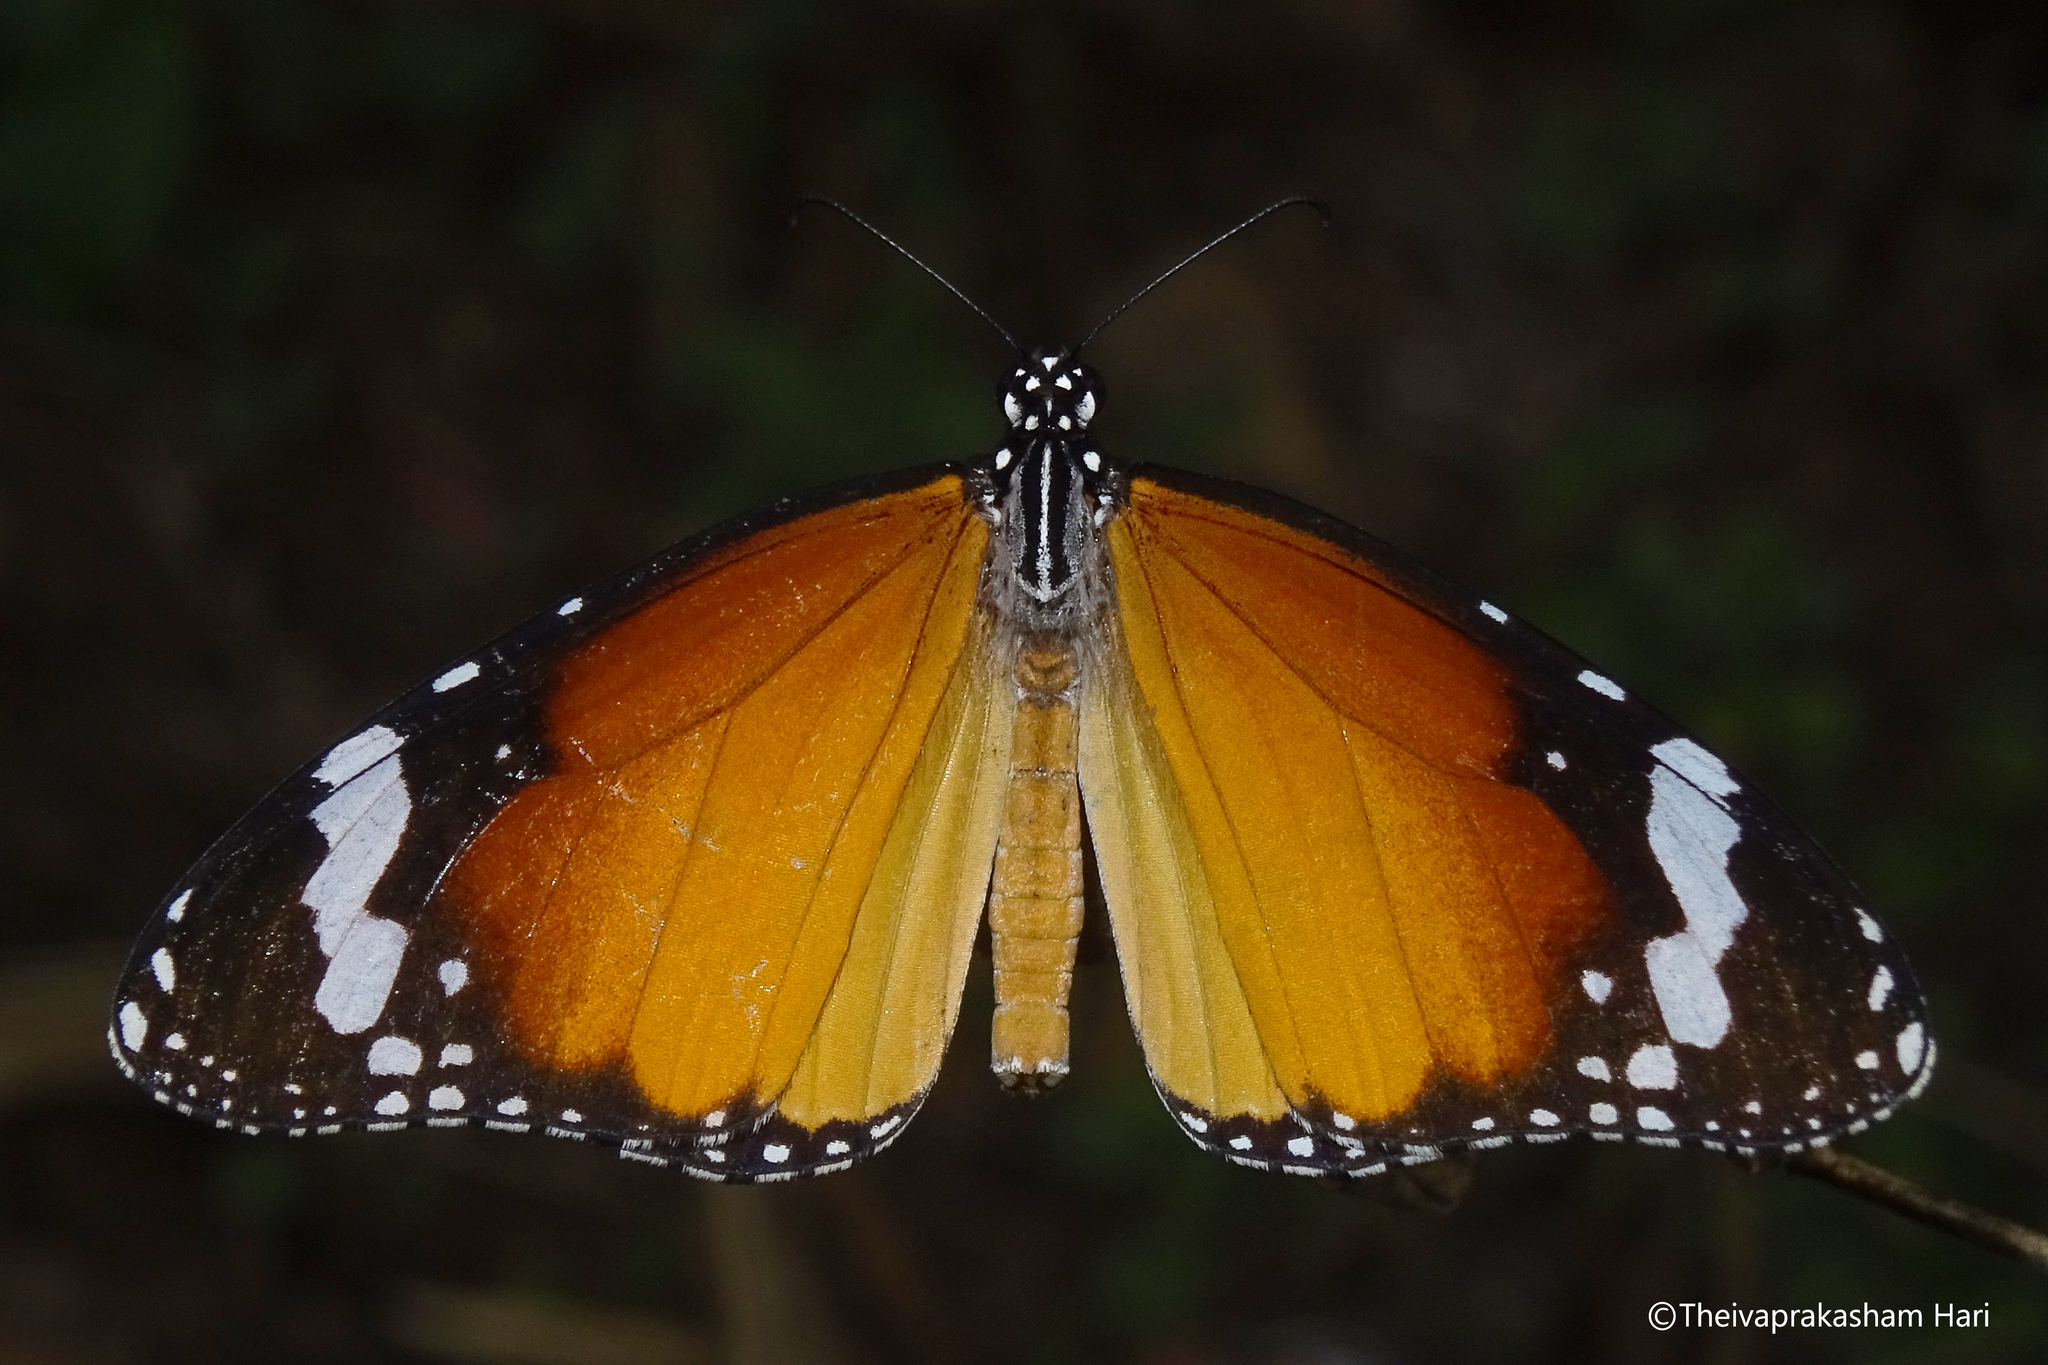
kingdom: Animalia
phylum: Arthropoda
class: Insecta
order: Lepidoptera
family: Nymphalidae
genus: Danaus
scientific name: Danaus chrysippus
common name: Plain tiger
